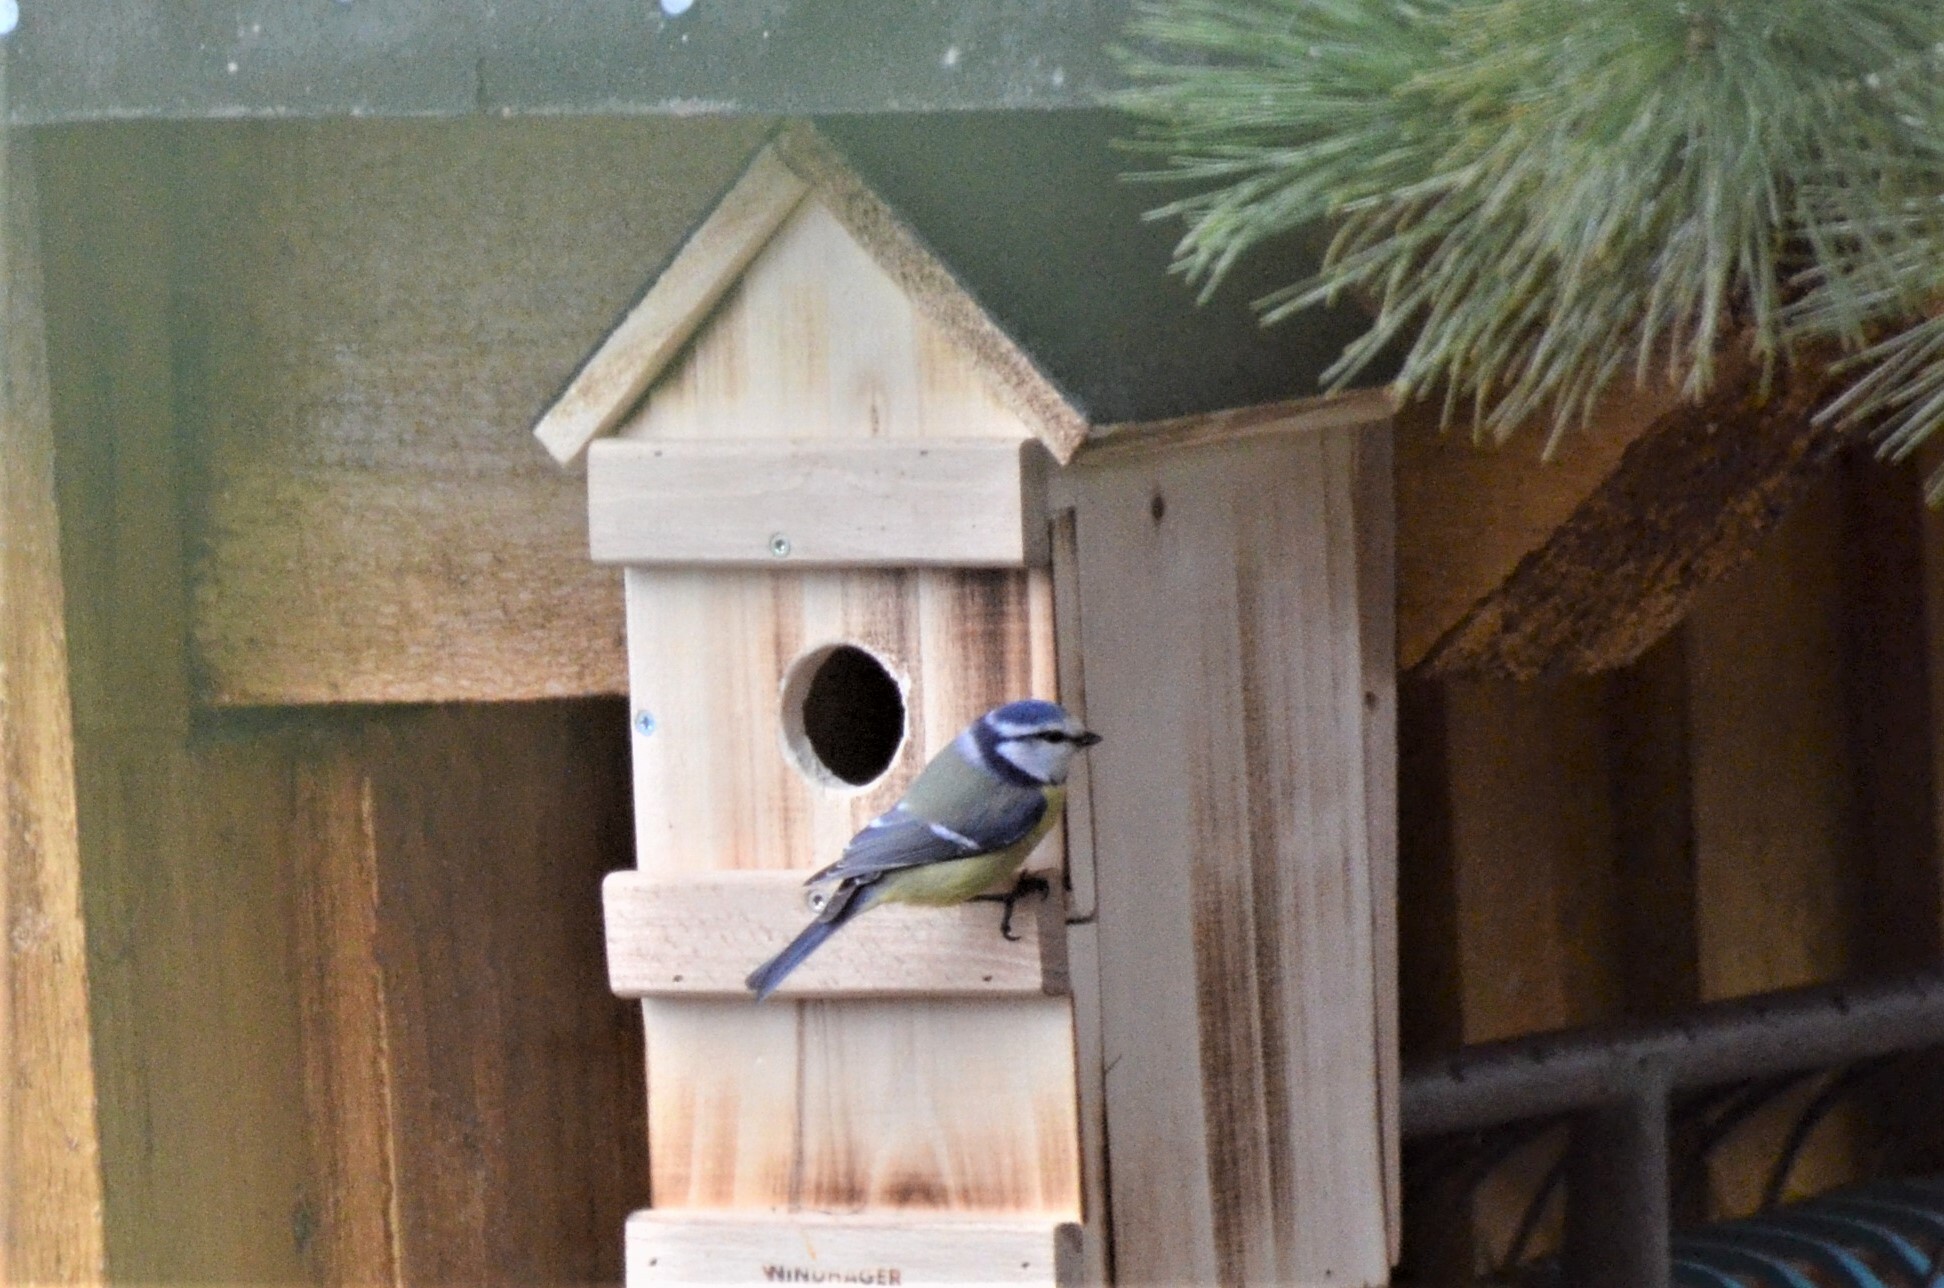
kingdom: Animalia
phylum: Chordata
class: Aves
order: Passeriformes
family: Paridae
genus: Cyanistes
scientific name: Cyanistes caeruleus
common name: Eurasian blue tit
